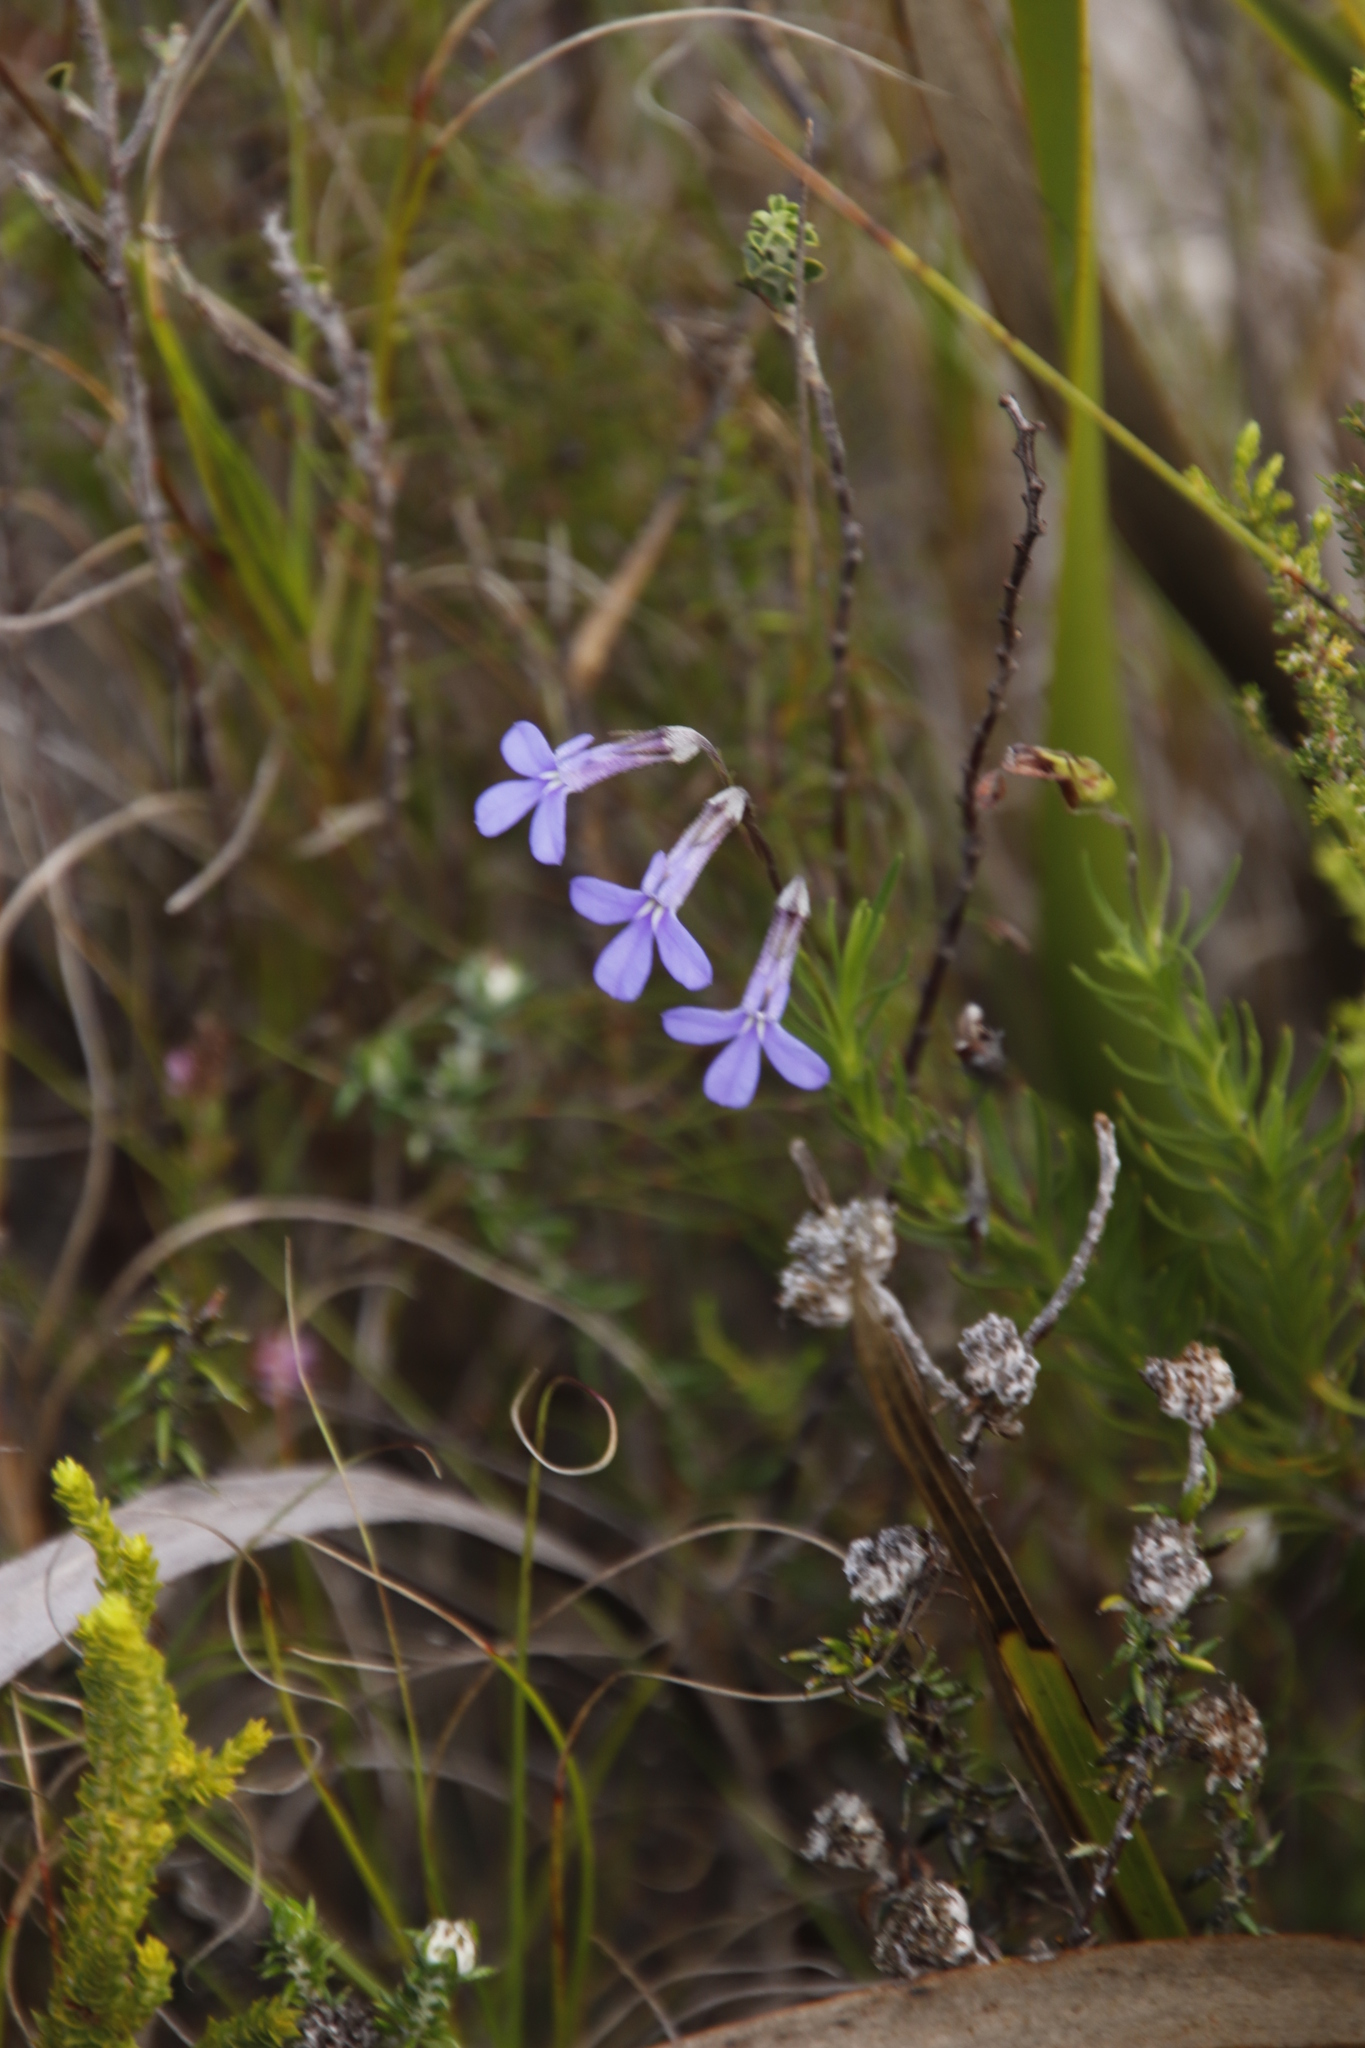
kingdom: Plantae
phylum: Tracheophyta
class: Magnoliopsida
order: Asterales
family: Campanulaceae
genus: Lobelia
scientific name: Lobelia pinifolia
